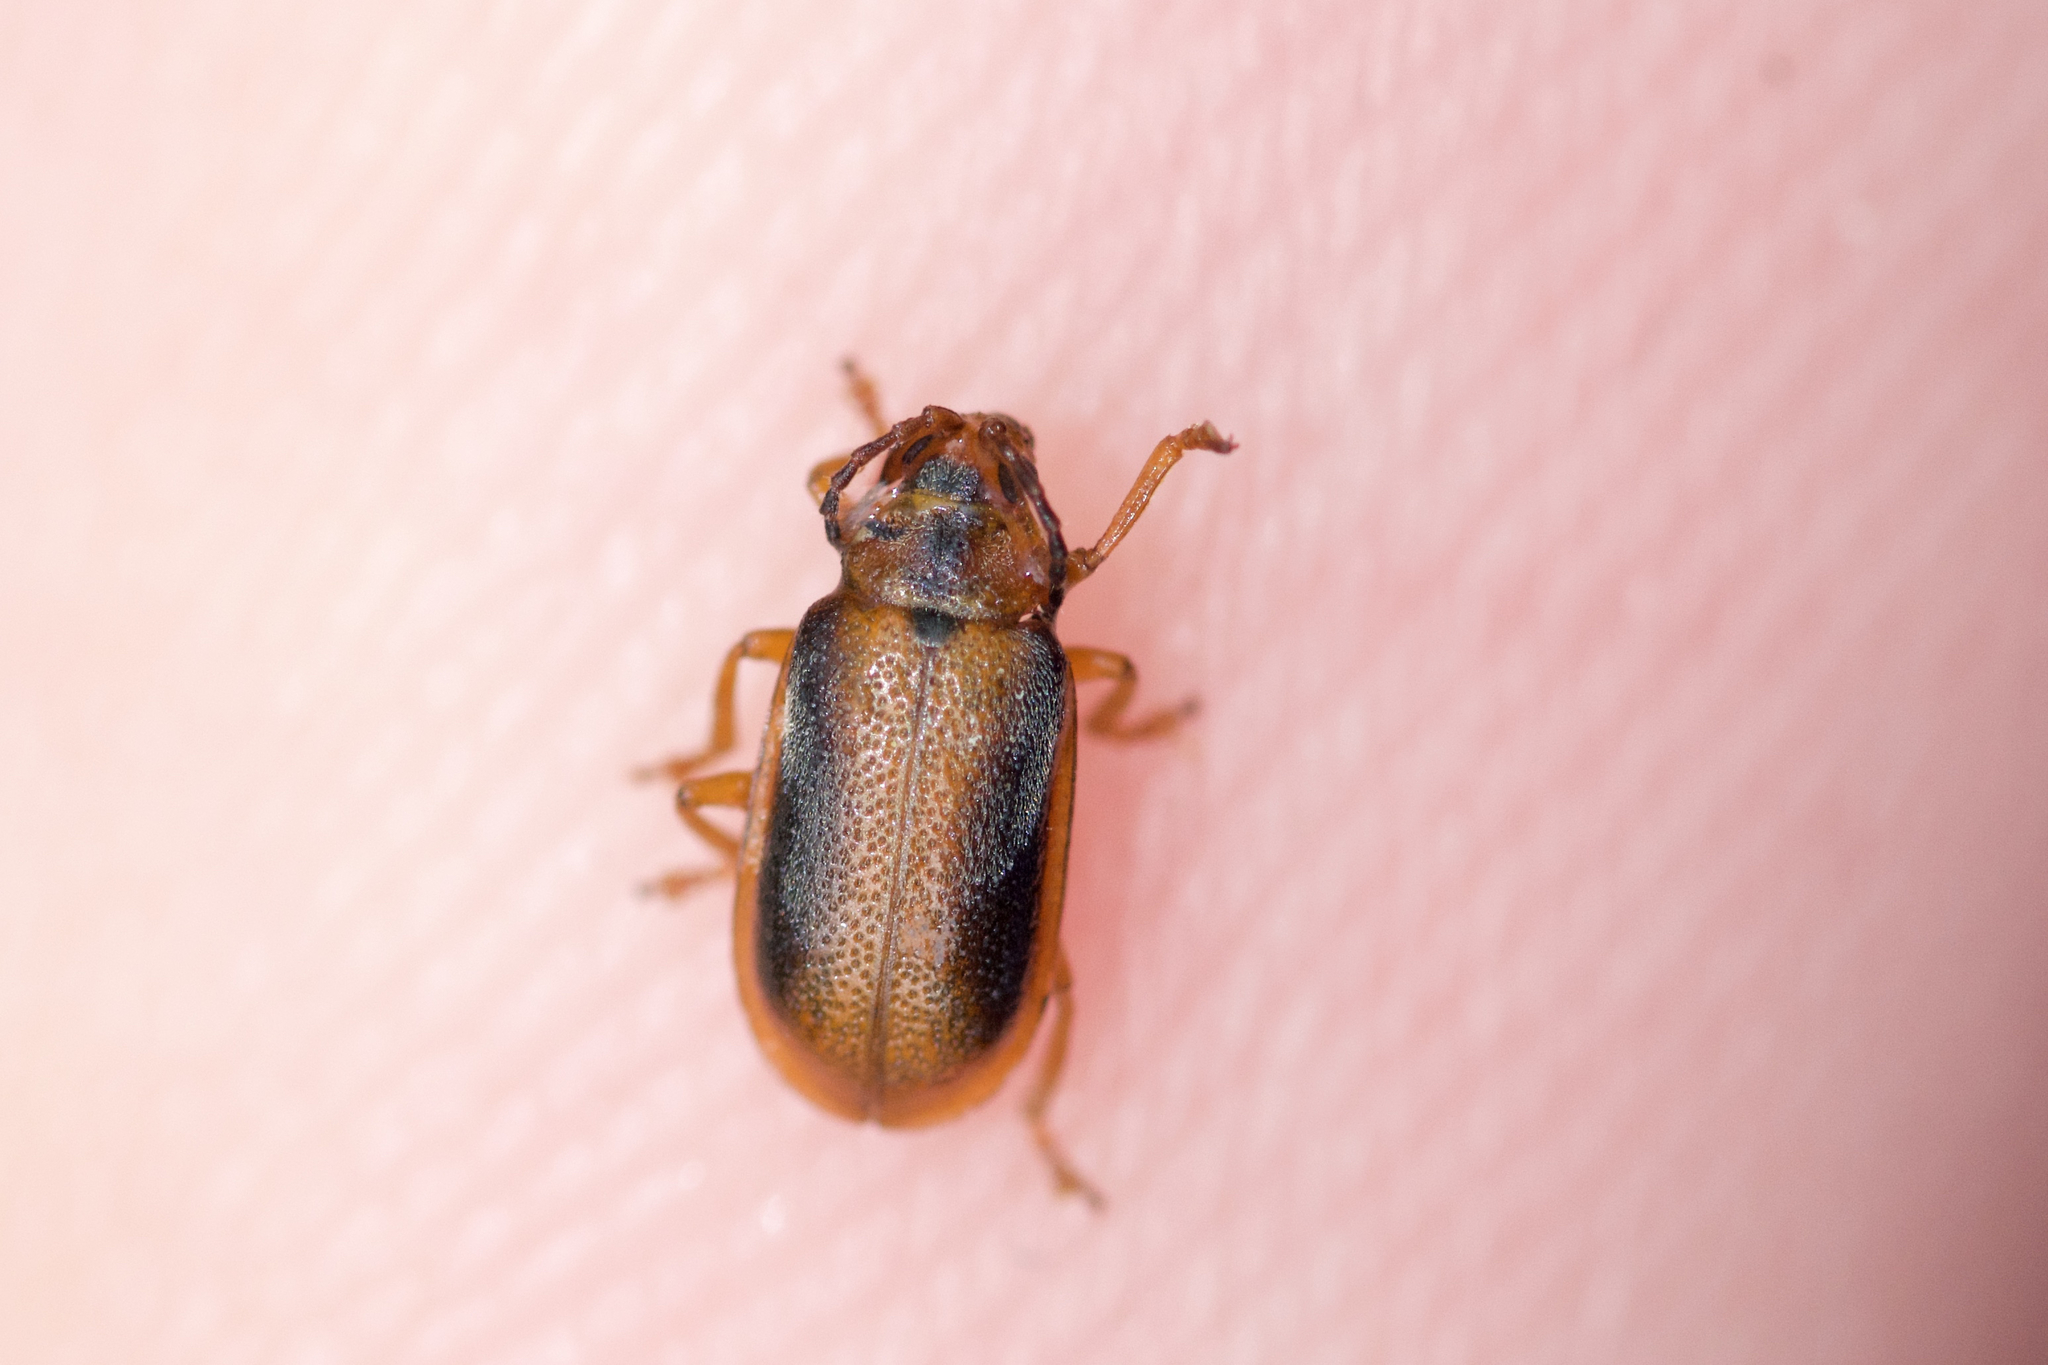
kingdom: Animalia
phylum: Arthropoda
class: Insecta
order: Coleoptera
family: Chrysomelidae
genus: Neogalerucella
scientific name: Neogalerucella calmariensis
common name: Black-margined loosestrife beetle
